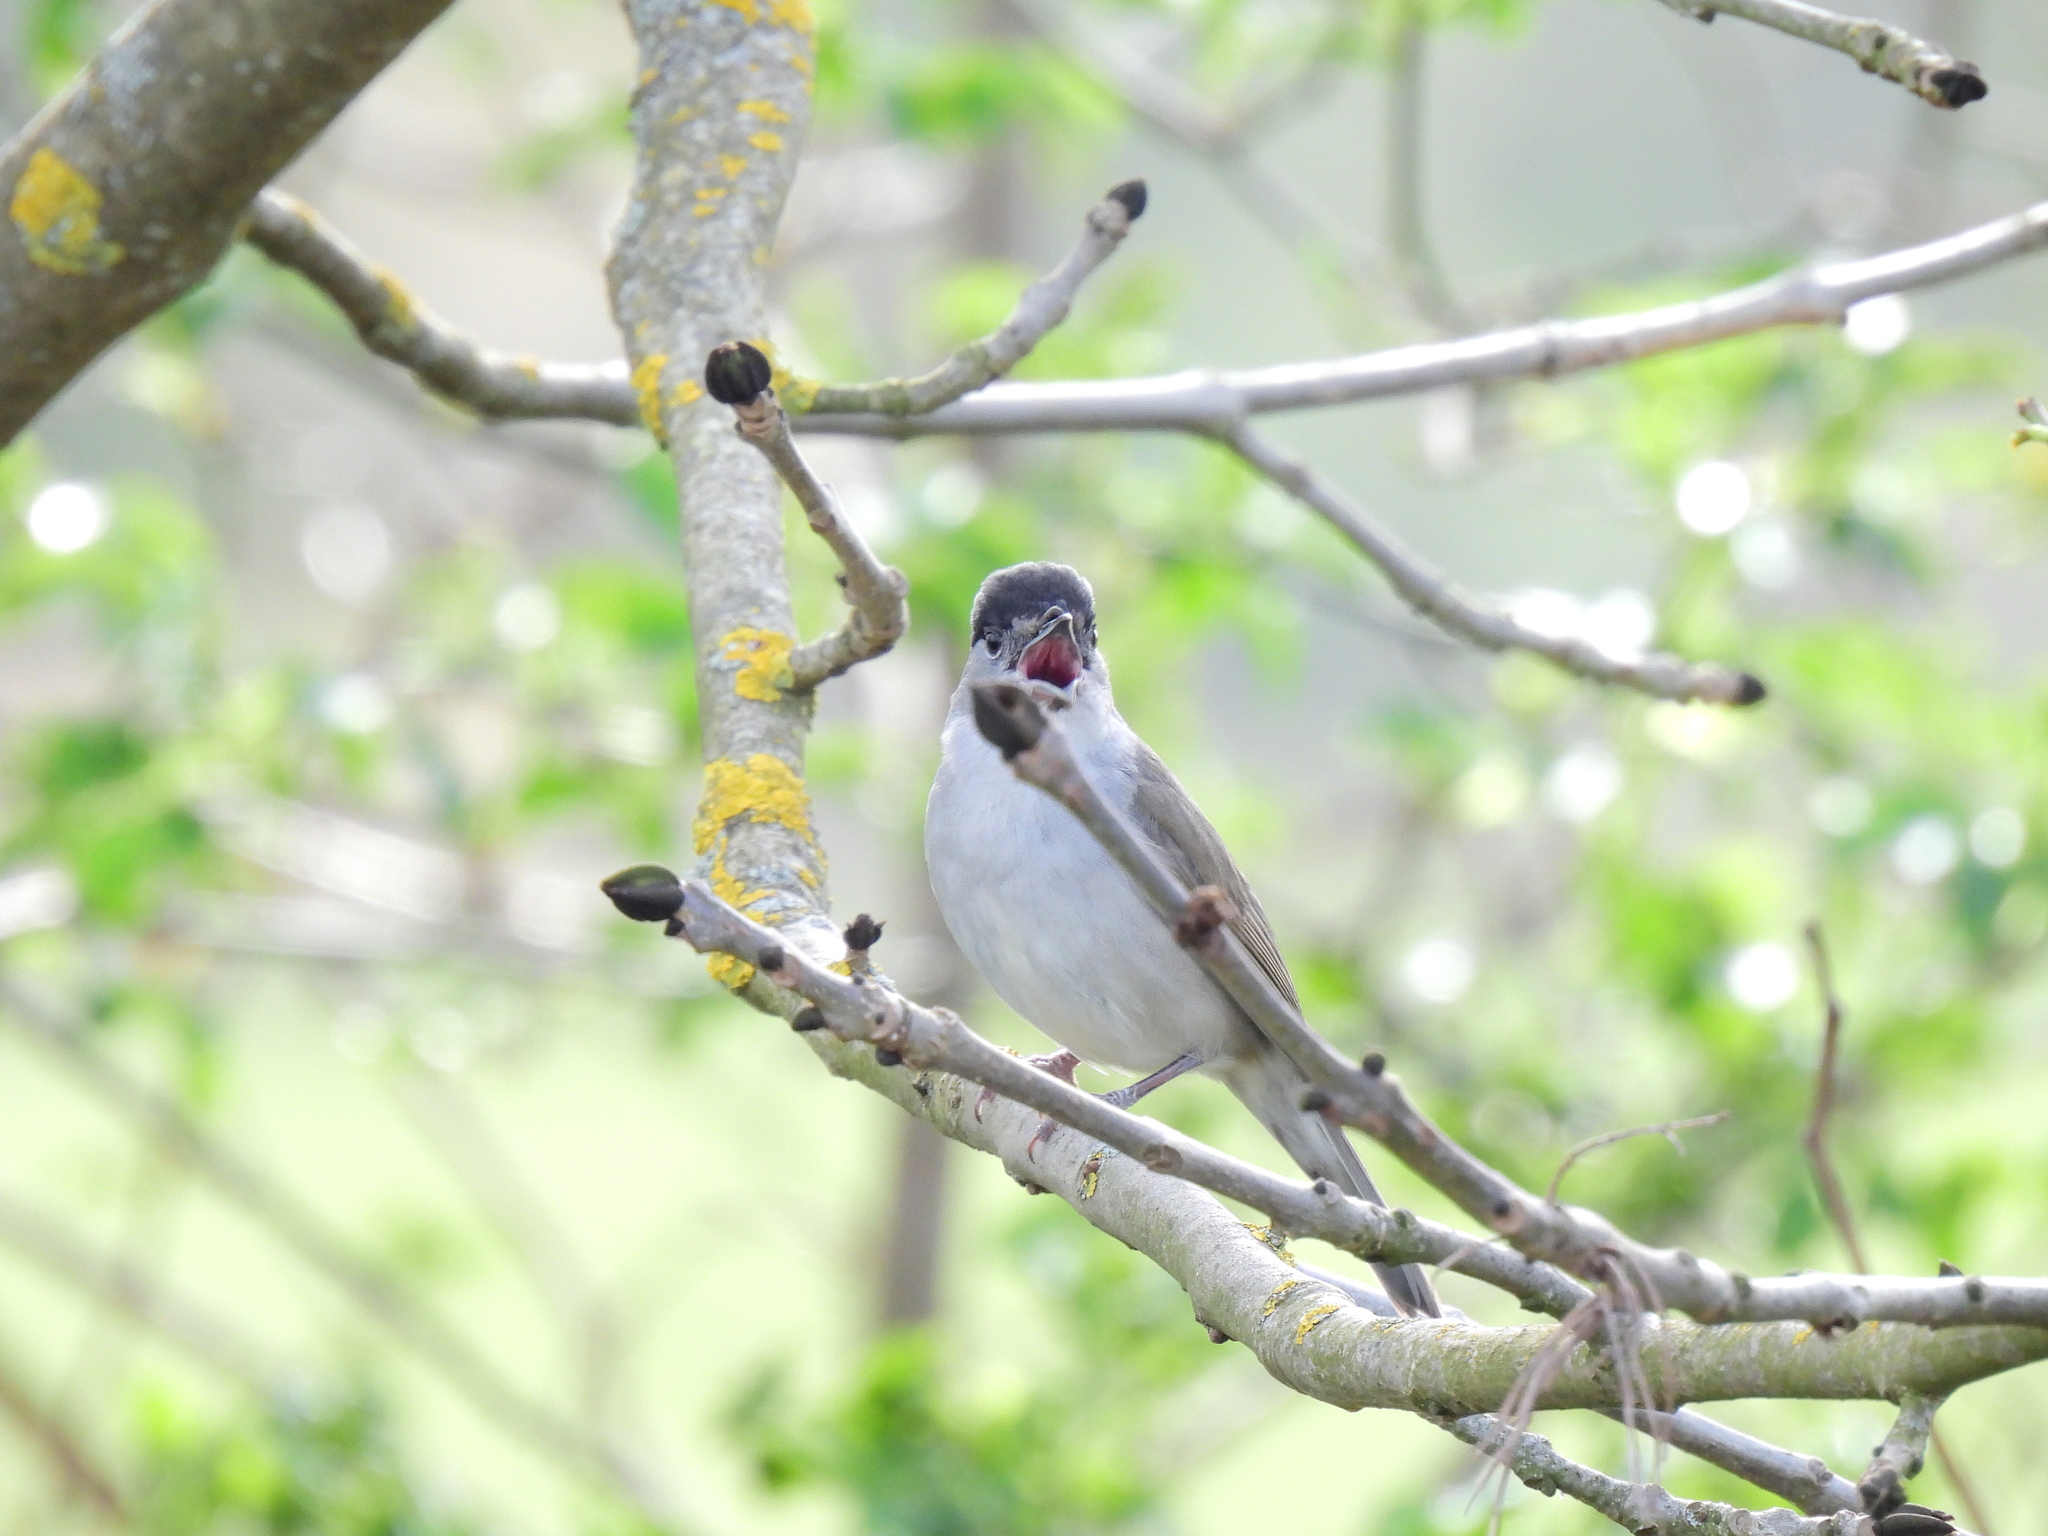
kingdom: Animalia
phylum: Chordata
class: Aves
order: Passeriformes
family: Sylviidae
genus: Sylvia
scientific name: Sylvia atricapilla
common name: Eurasian blackcap
